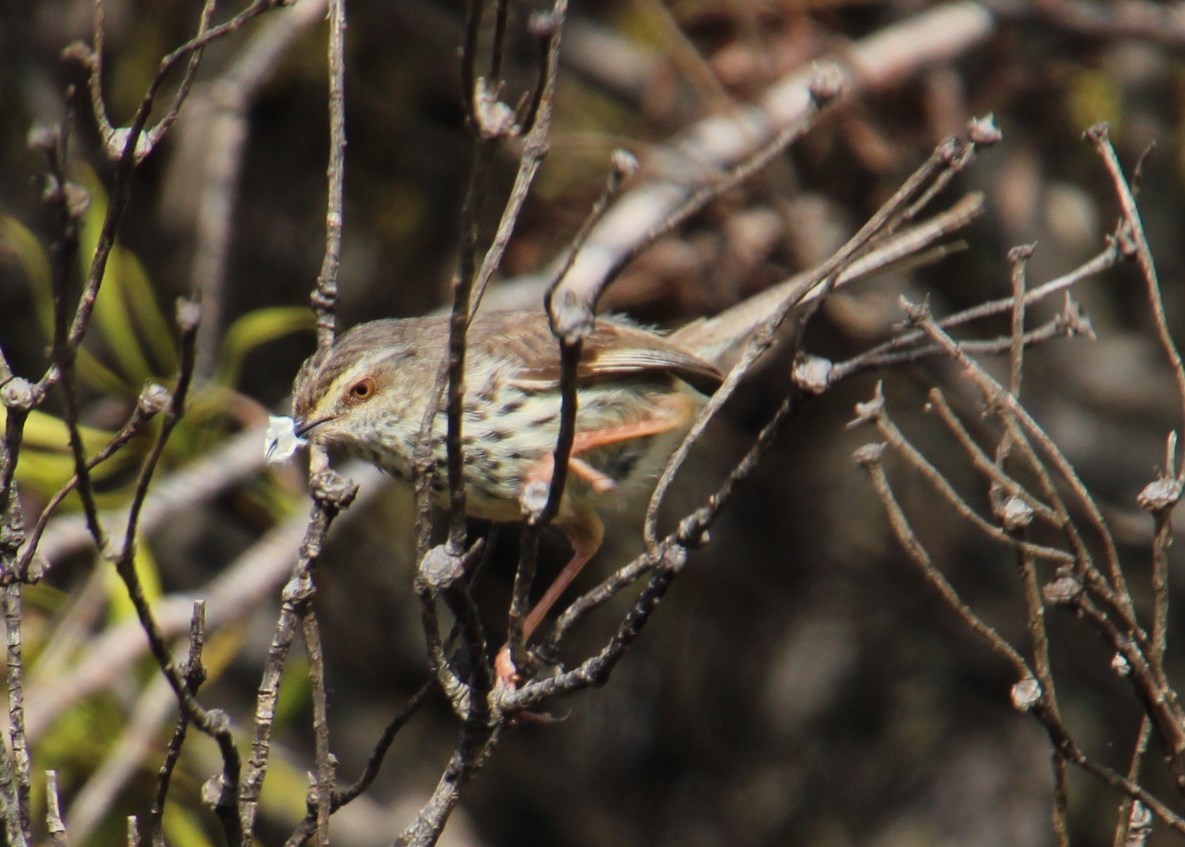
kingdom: Animalia
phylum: Chordata
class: Aves
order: Passeriformes
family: Cisticolidae
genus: Prinia
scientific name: Prinia maculosa
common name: Karoo prinia
